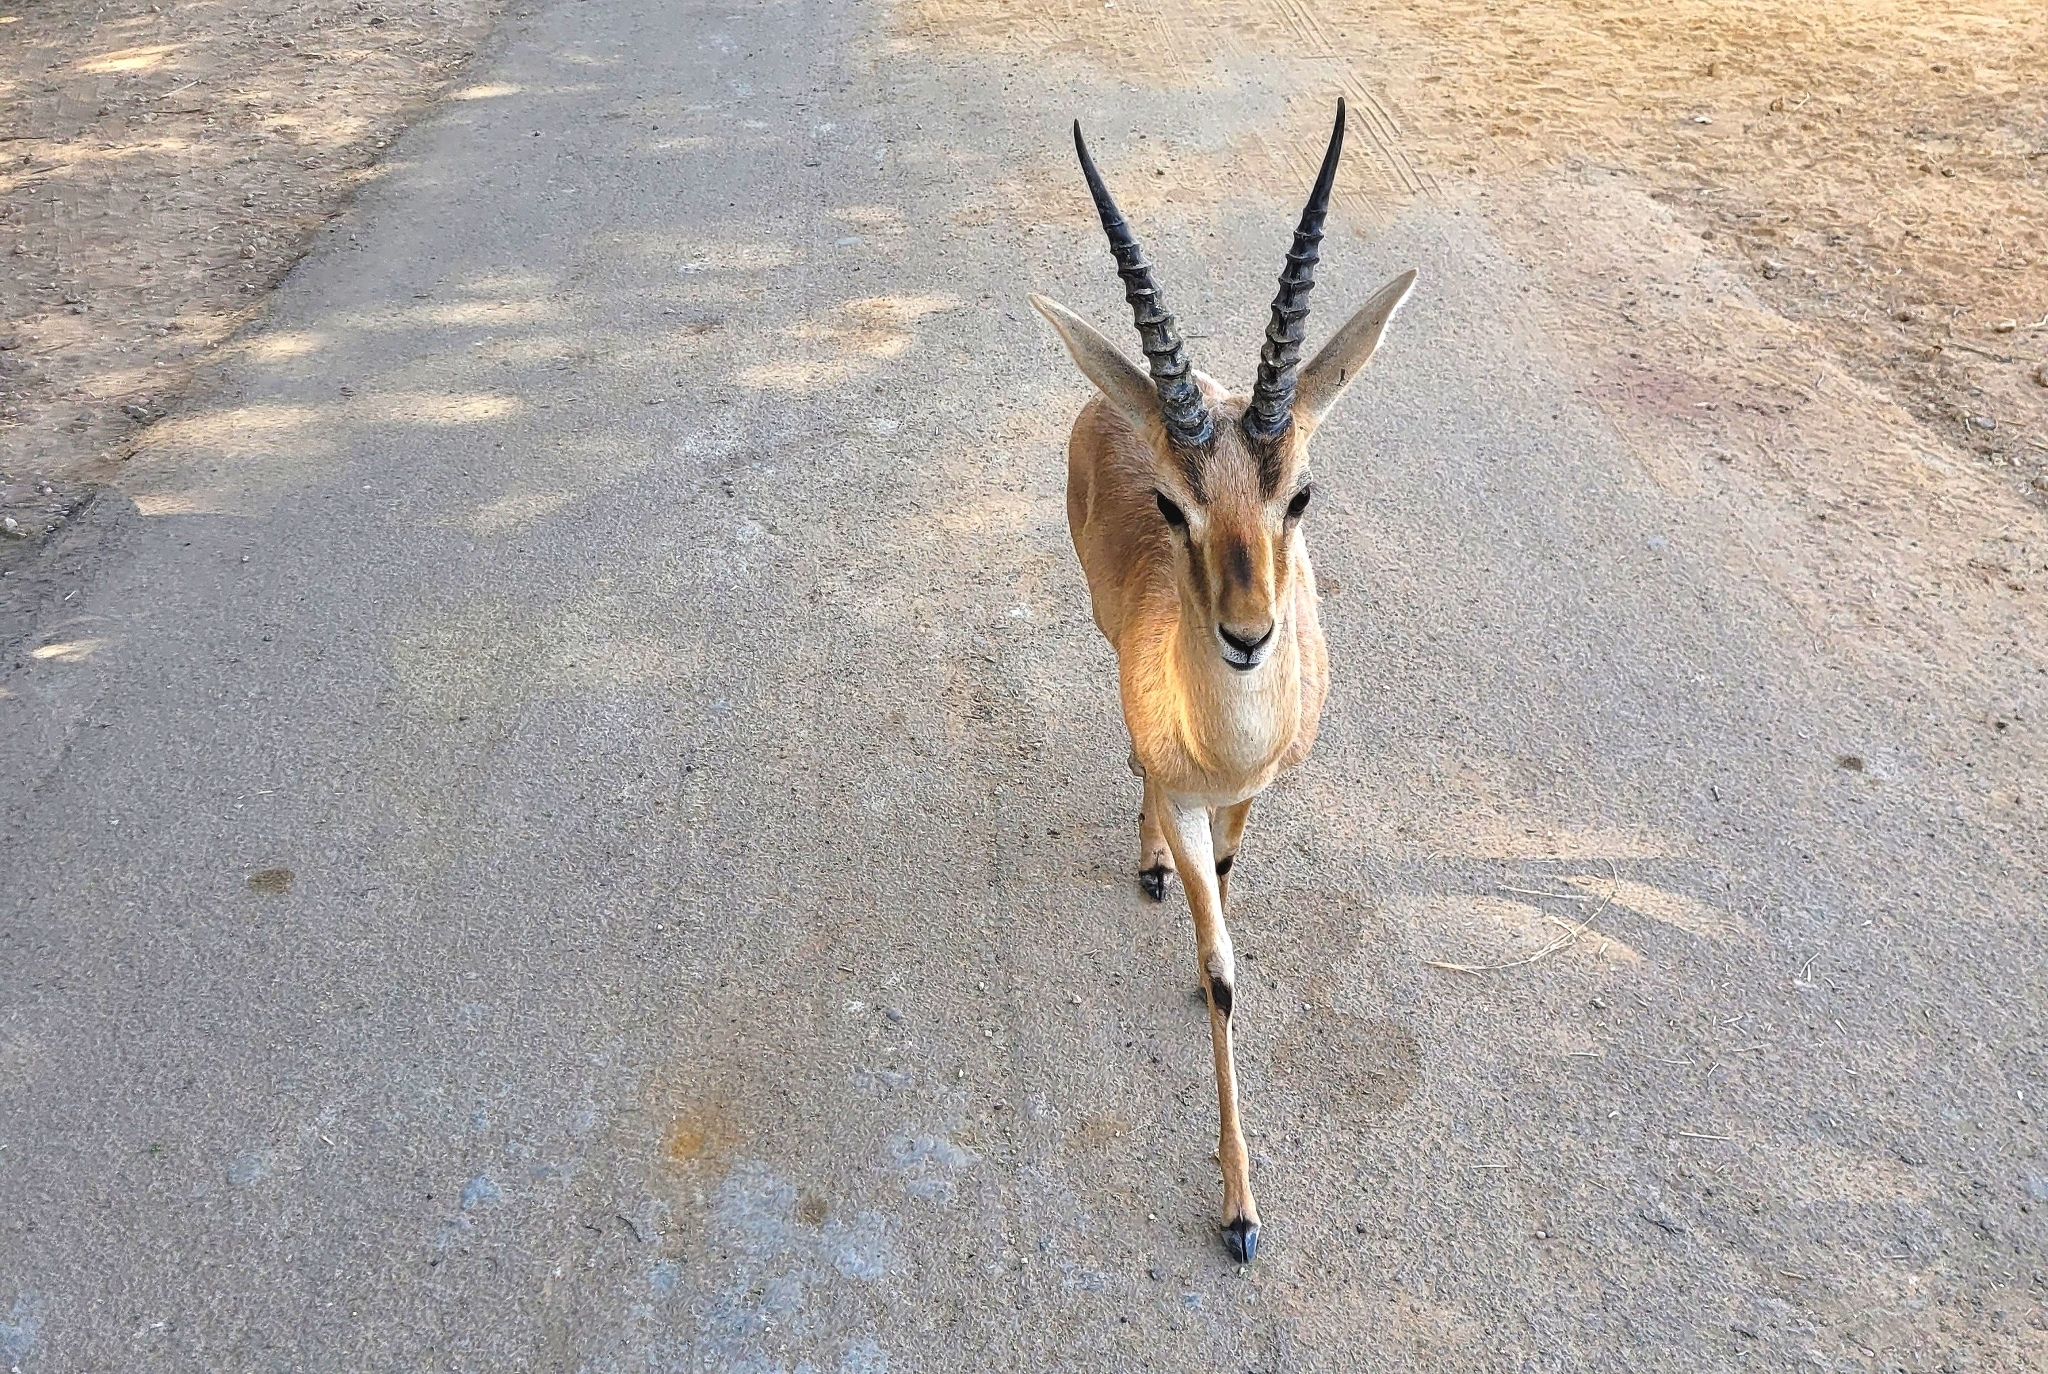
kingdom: Animalia
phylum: Chordata
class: Mammalia
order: Artiodactyla
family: Bovidae
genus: Gazella
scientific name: Gazella bennettii
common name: Indian gazelle
